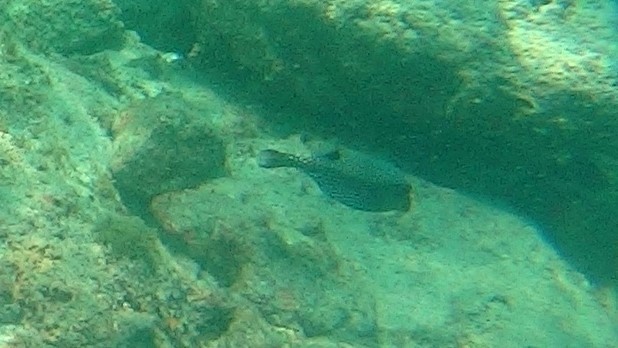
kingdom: Animalia
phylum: Chordata
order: Tetraodontiformes
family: Ostraciidae
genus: Ostracion
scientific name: Ostracion meleagris
